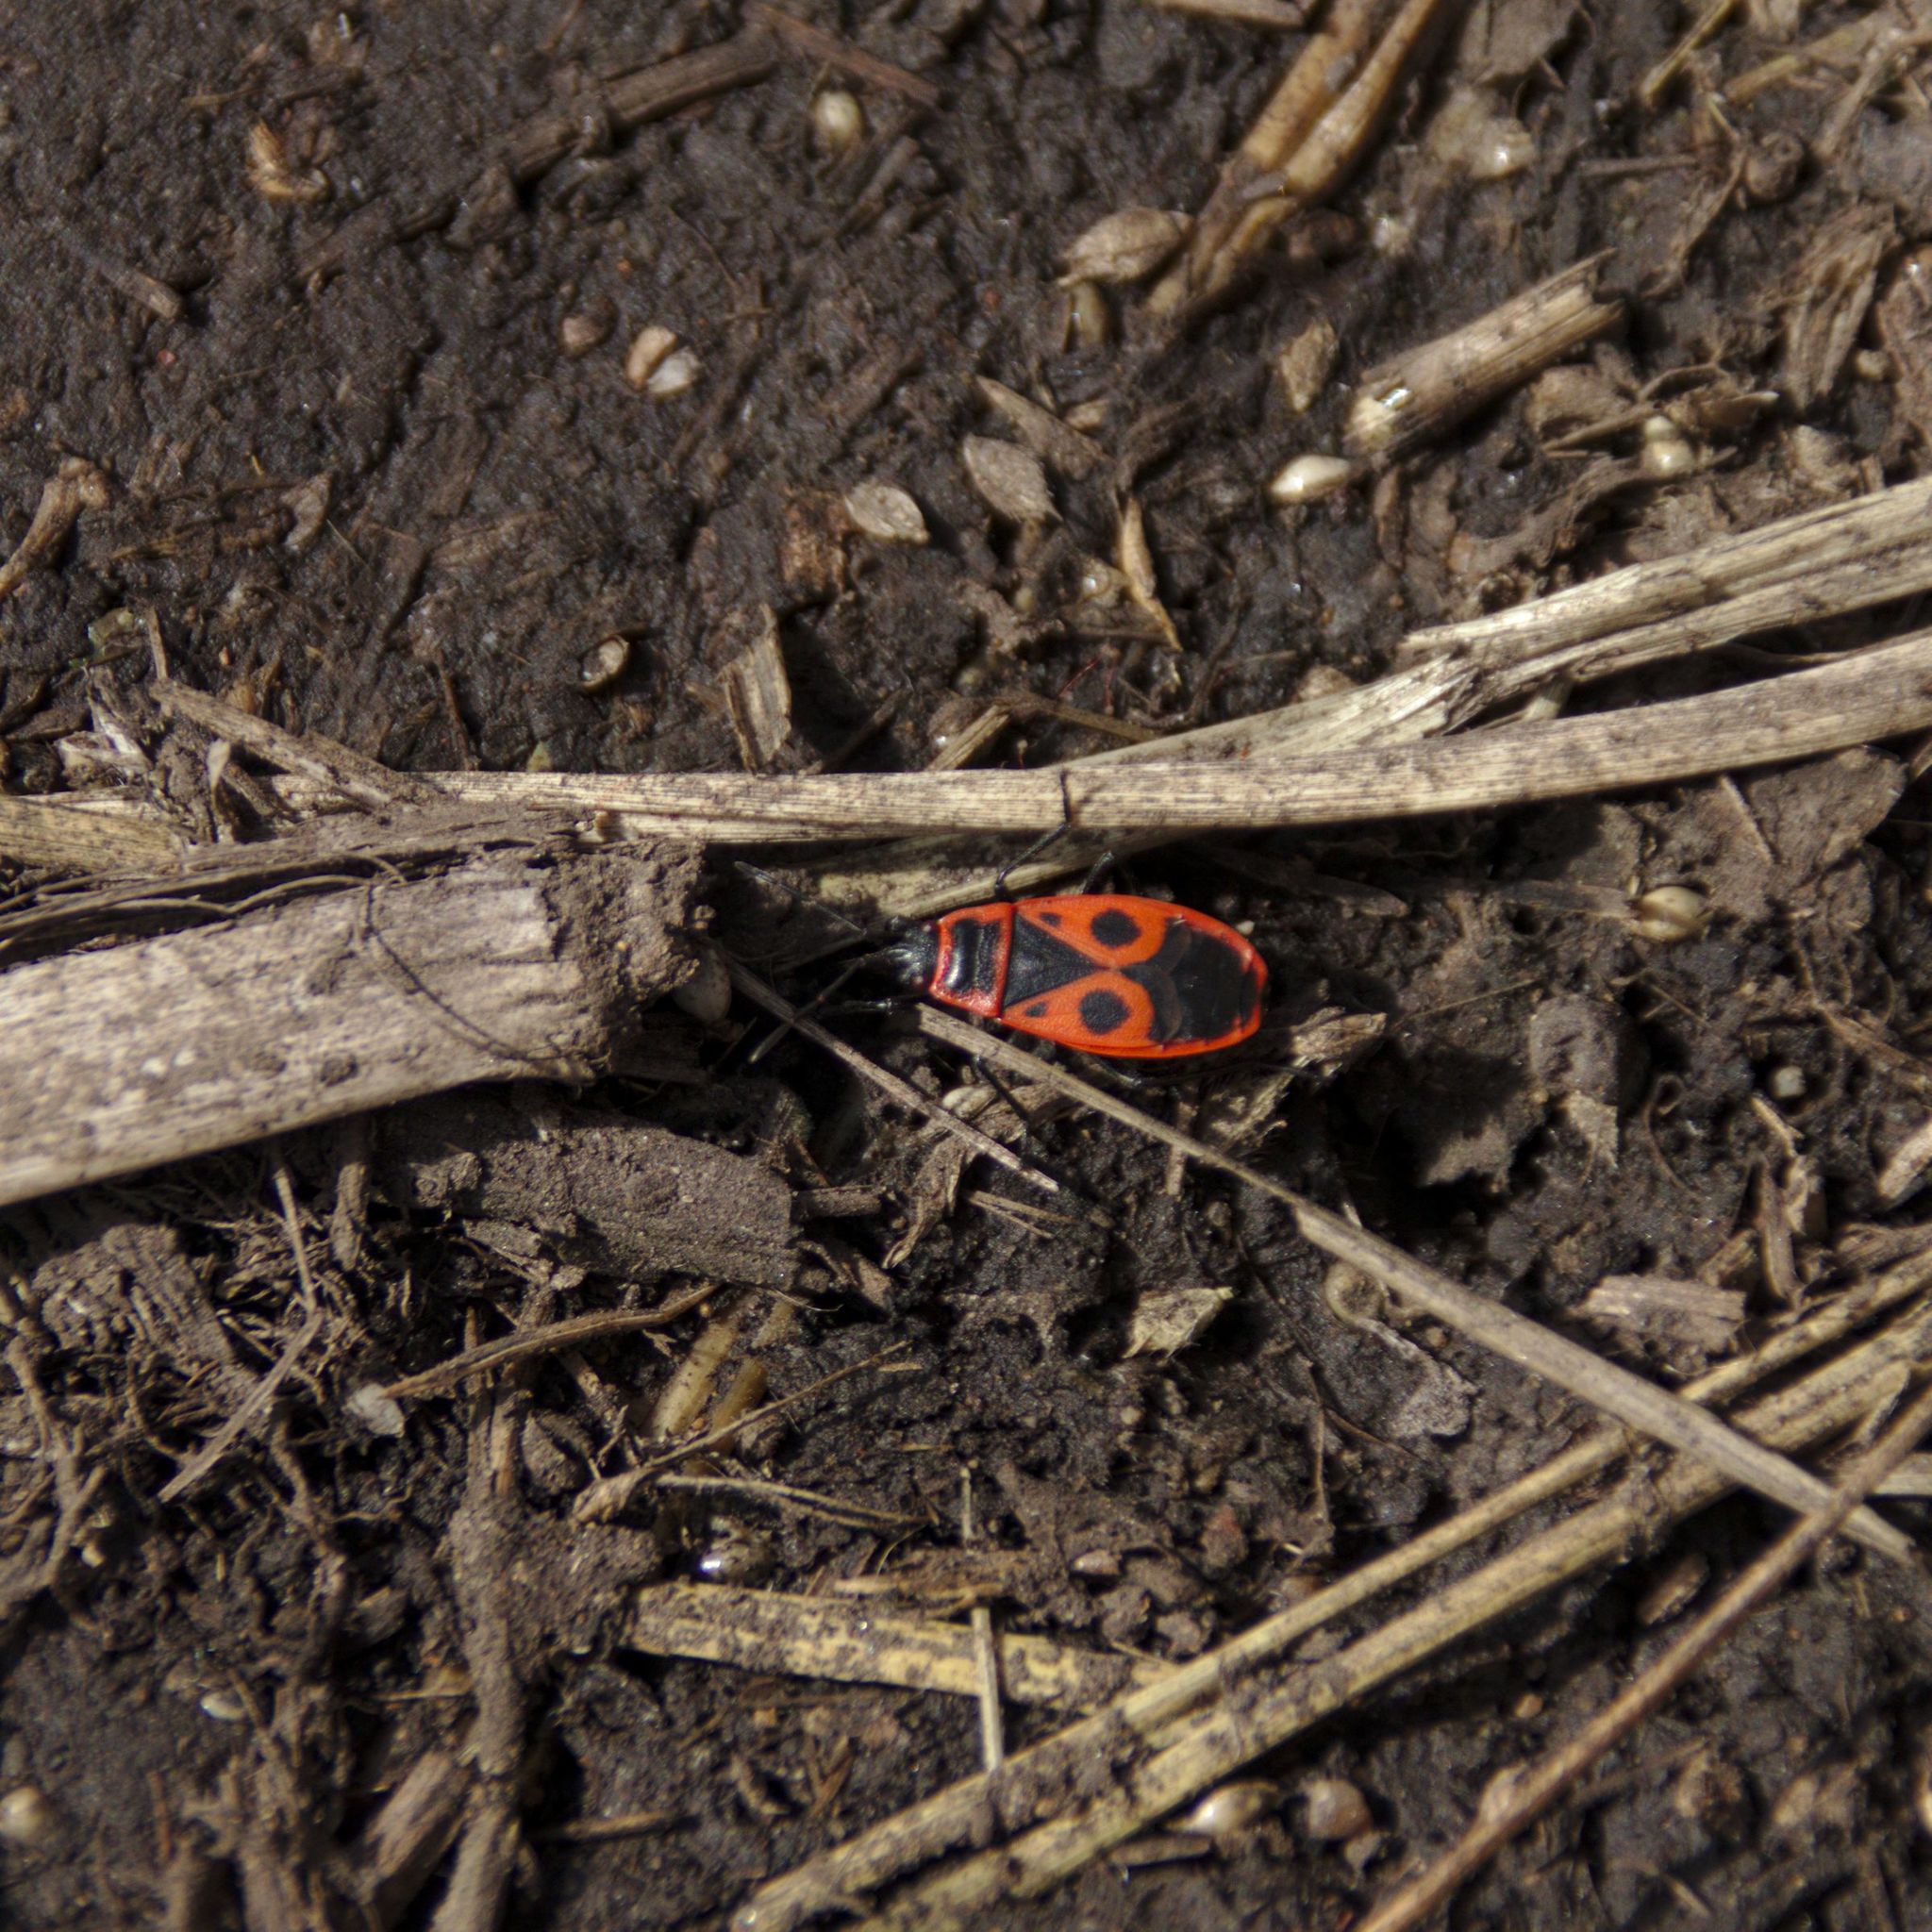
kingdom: Animalia
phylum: Arthropoda
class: Insecta
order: Hemiptera
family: Pyrrhocoridae
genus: Pyrrhocoris
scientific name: Pyrrhocoris apterus
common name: Firebug
